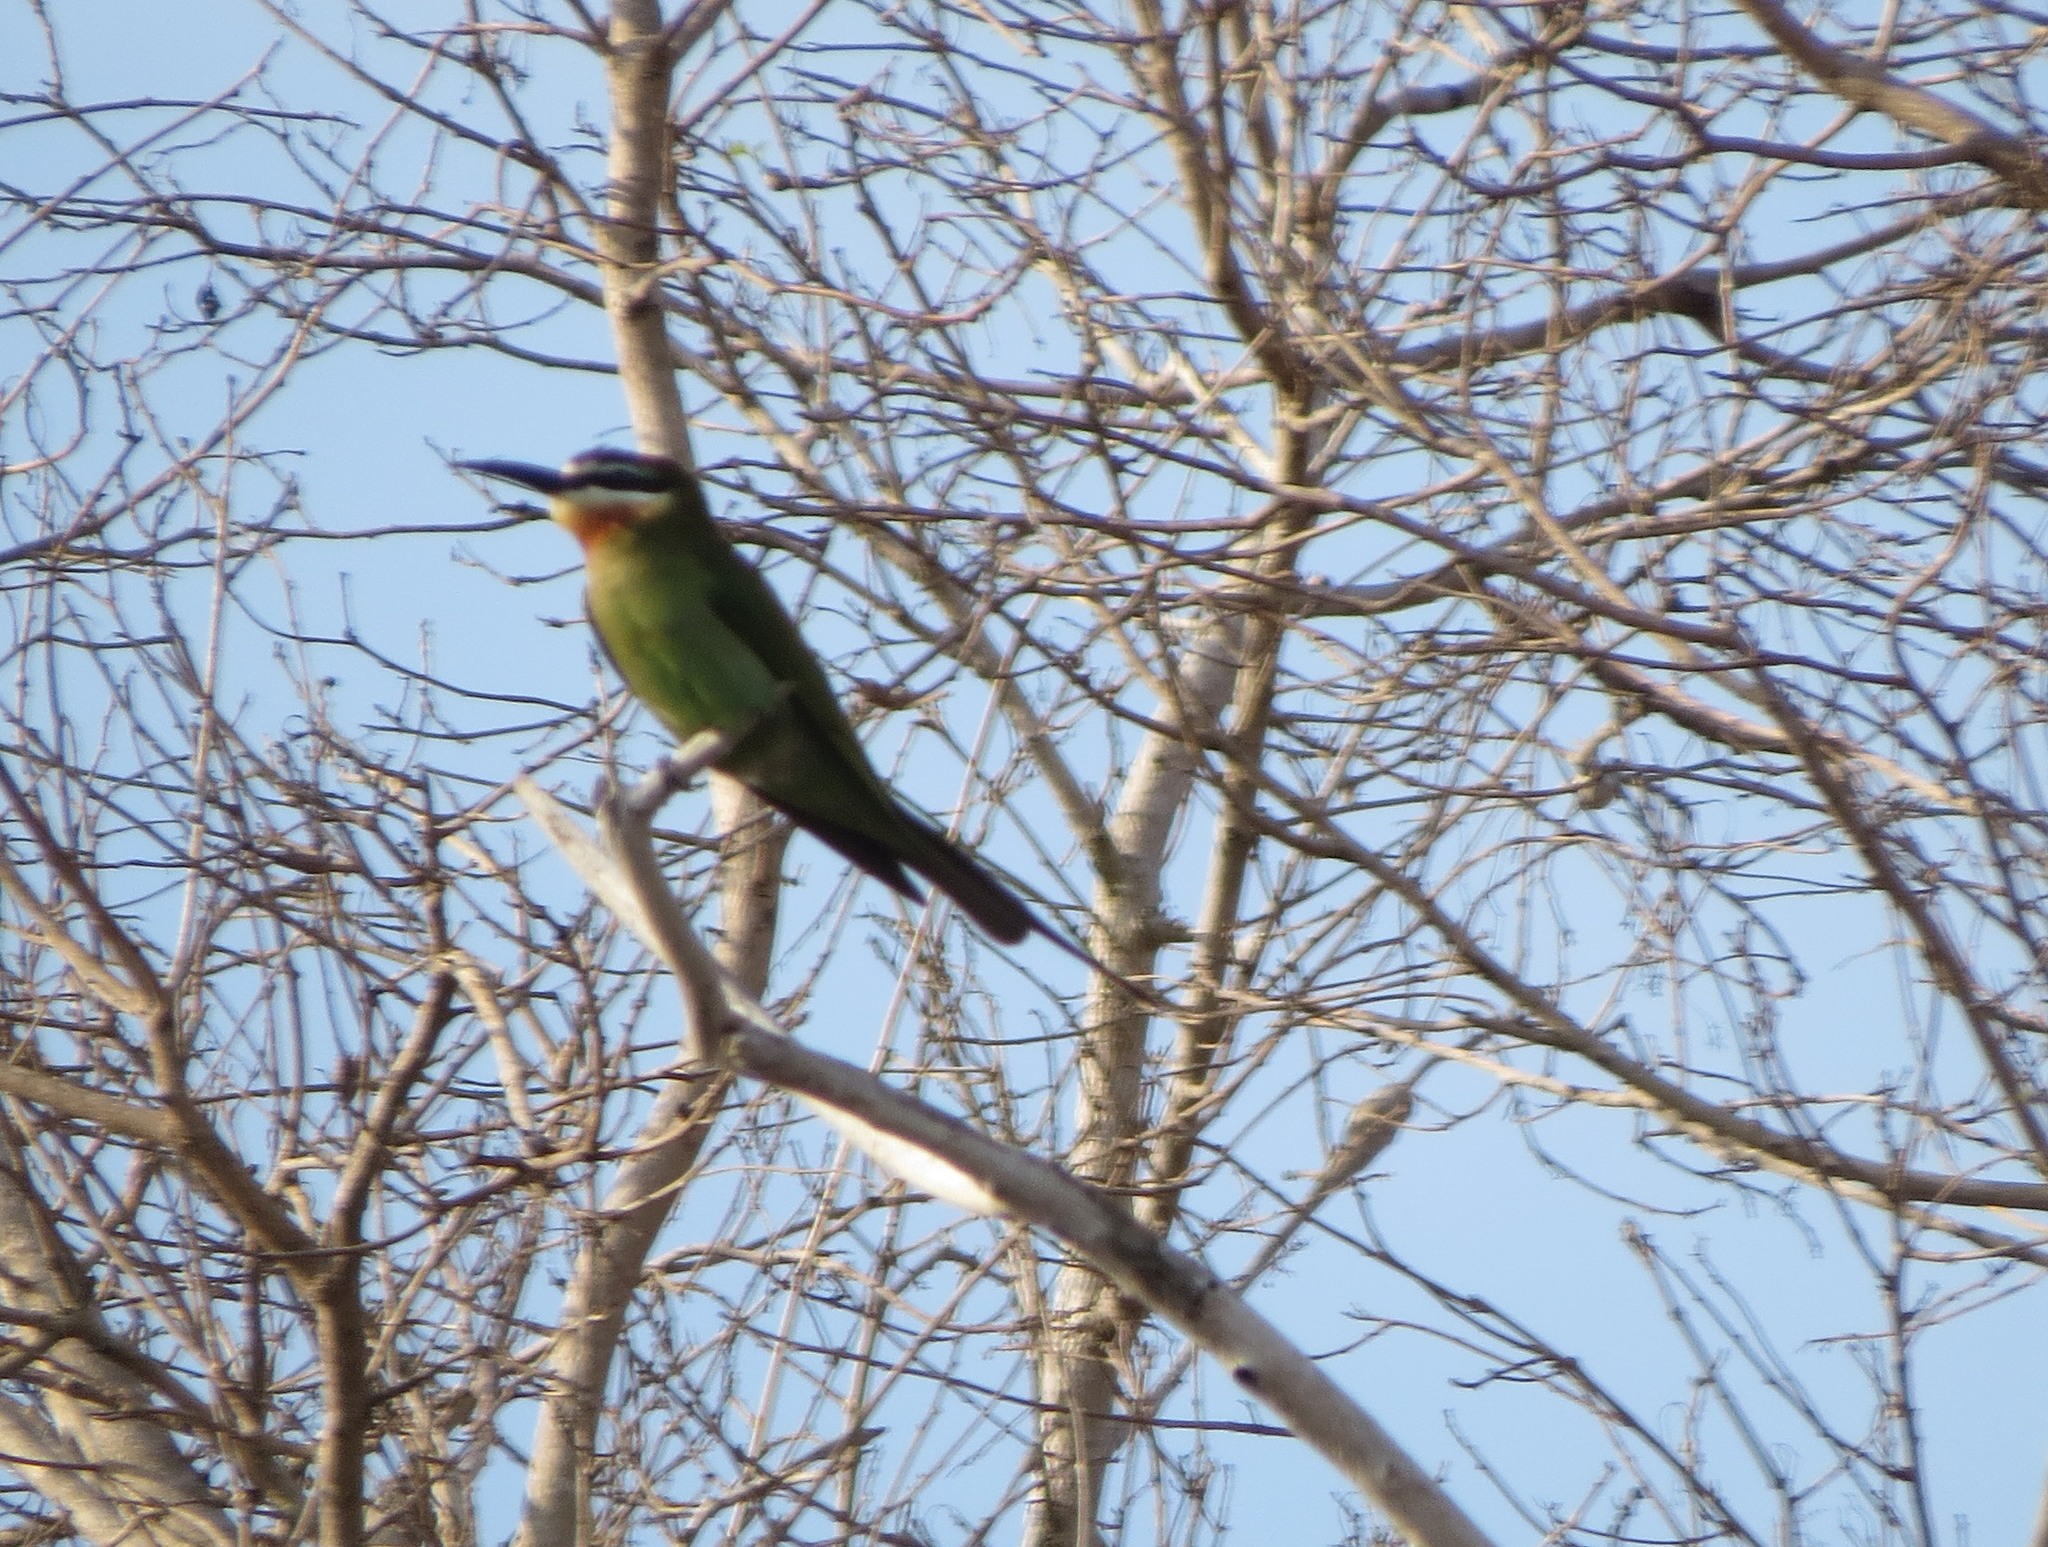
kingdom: Animalia
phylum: Chordata
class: Aves
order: Coraciiformes
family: Meropidae
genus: Merops
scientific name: Merops superciliosus
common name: Olive bee-eater
